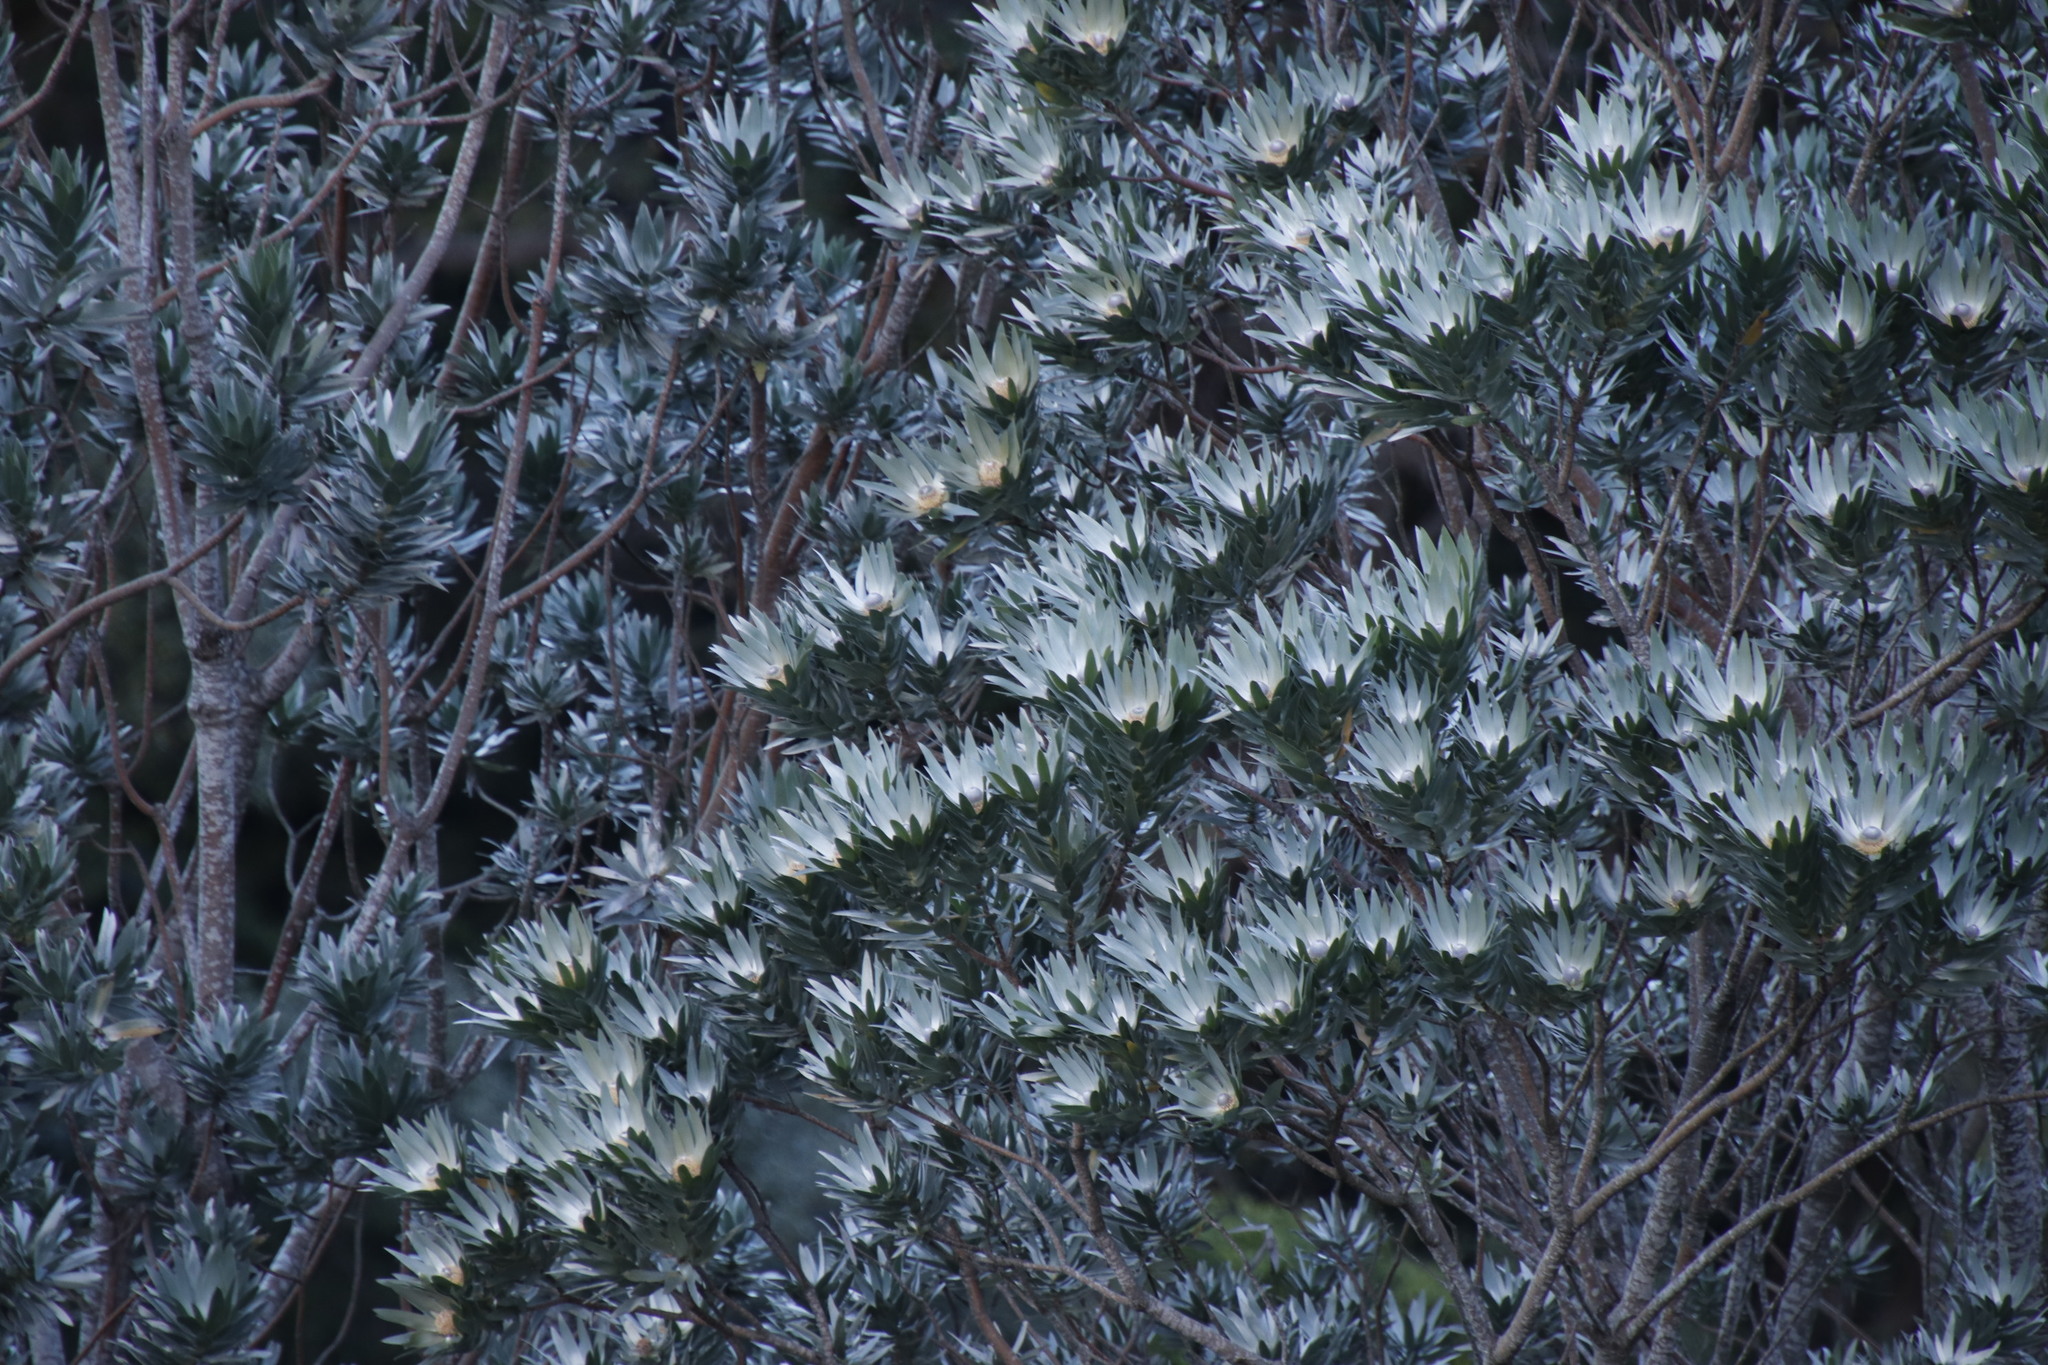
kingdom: Plantae
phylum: Tracheophyta
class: Magnoliopsida
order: Proteales
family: Proteaceae
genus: Leucadendron
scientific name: Leucadendron argenteum
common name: Cape silver tree
